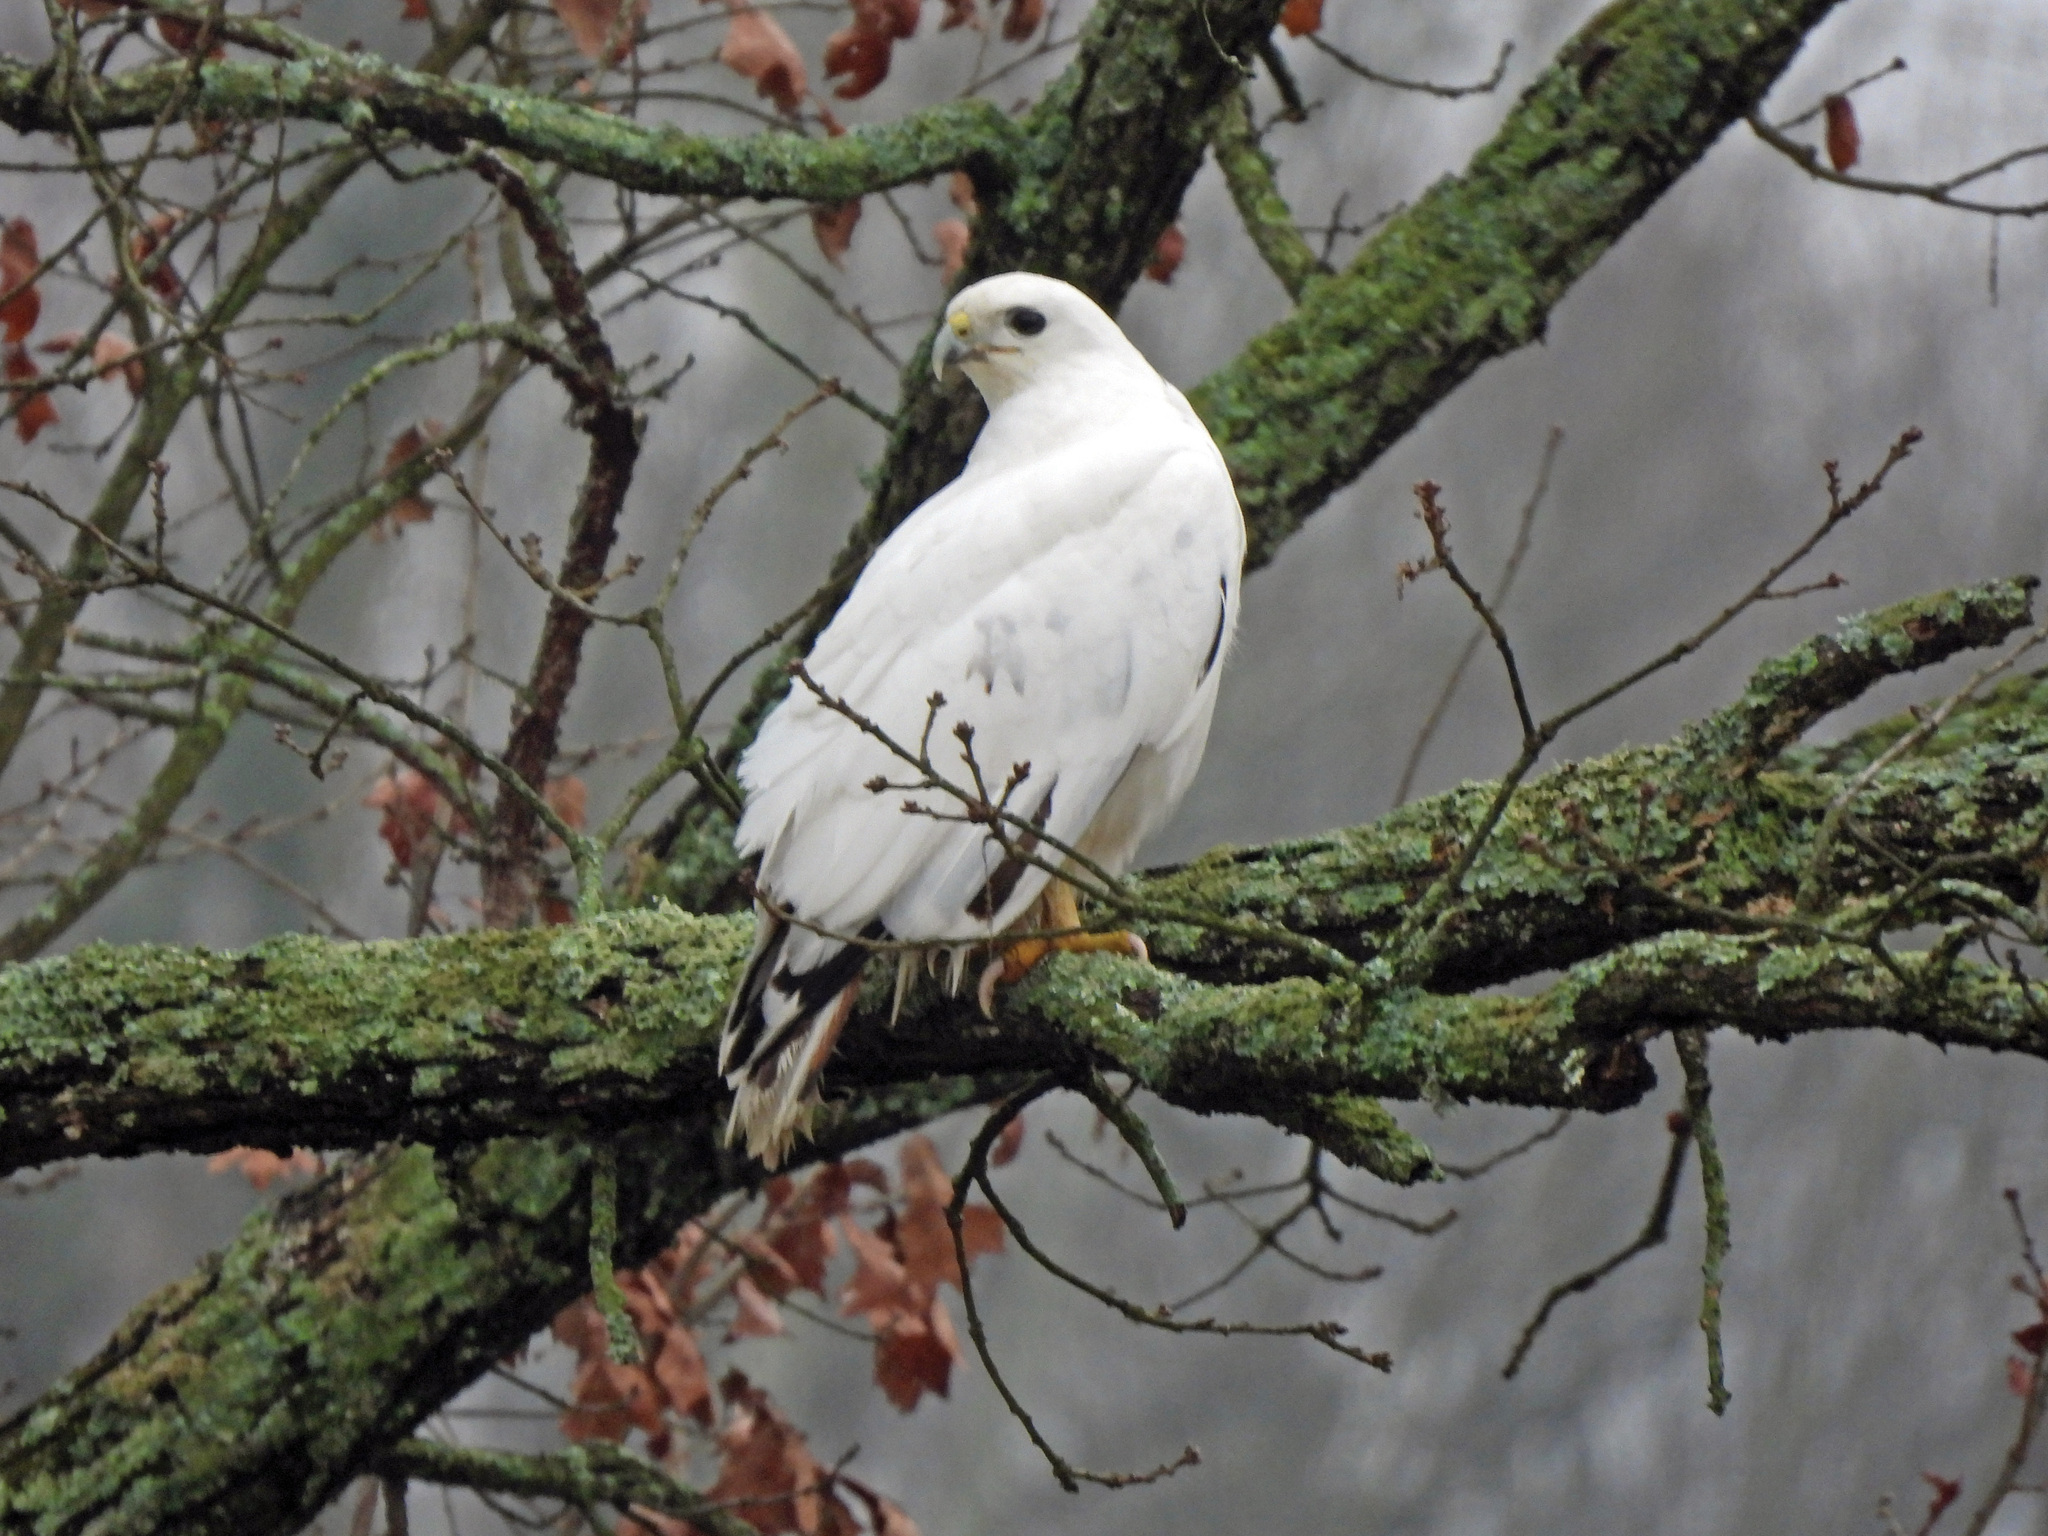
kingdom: Animalia
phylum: Chordata
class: Aves
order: Accipitriformes
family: Accipitridae
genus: Buteo
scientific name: Buteo jamaicensis
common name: Red-tailed hawk
